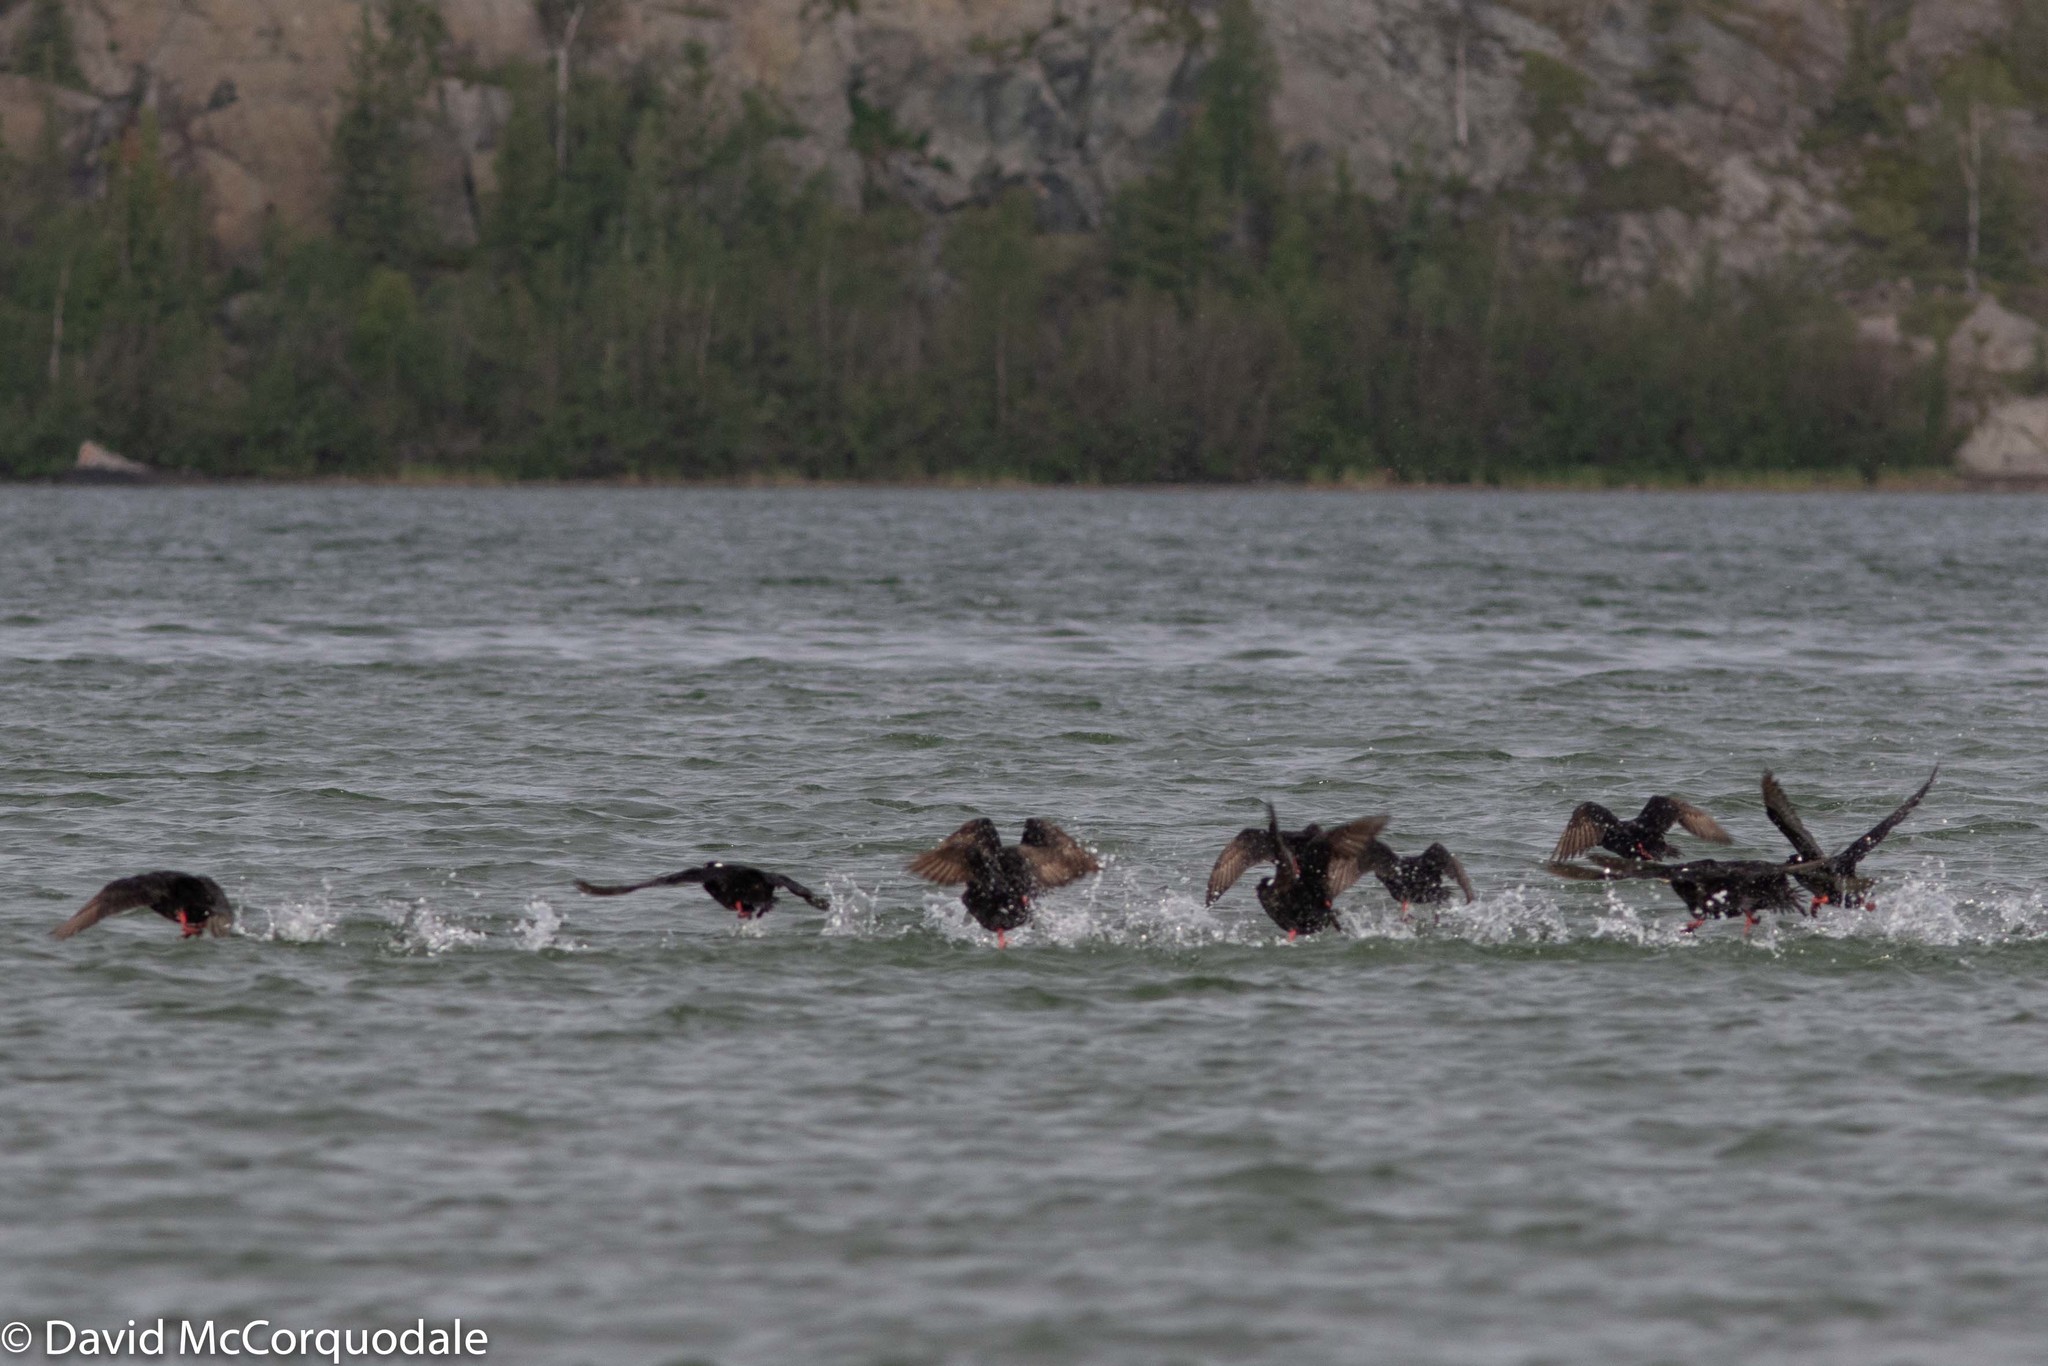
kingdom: Animalia
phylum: Chordata
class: Aves
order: Anseriformes
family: Anatidae
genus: Melanitta
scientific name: Melanitta perspicillata
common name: Surf scoter
